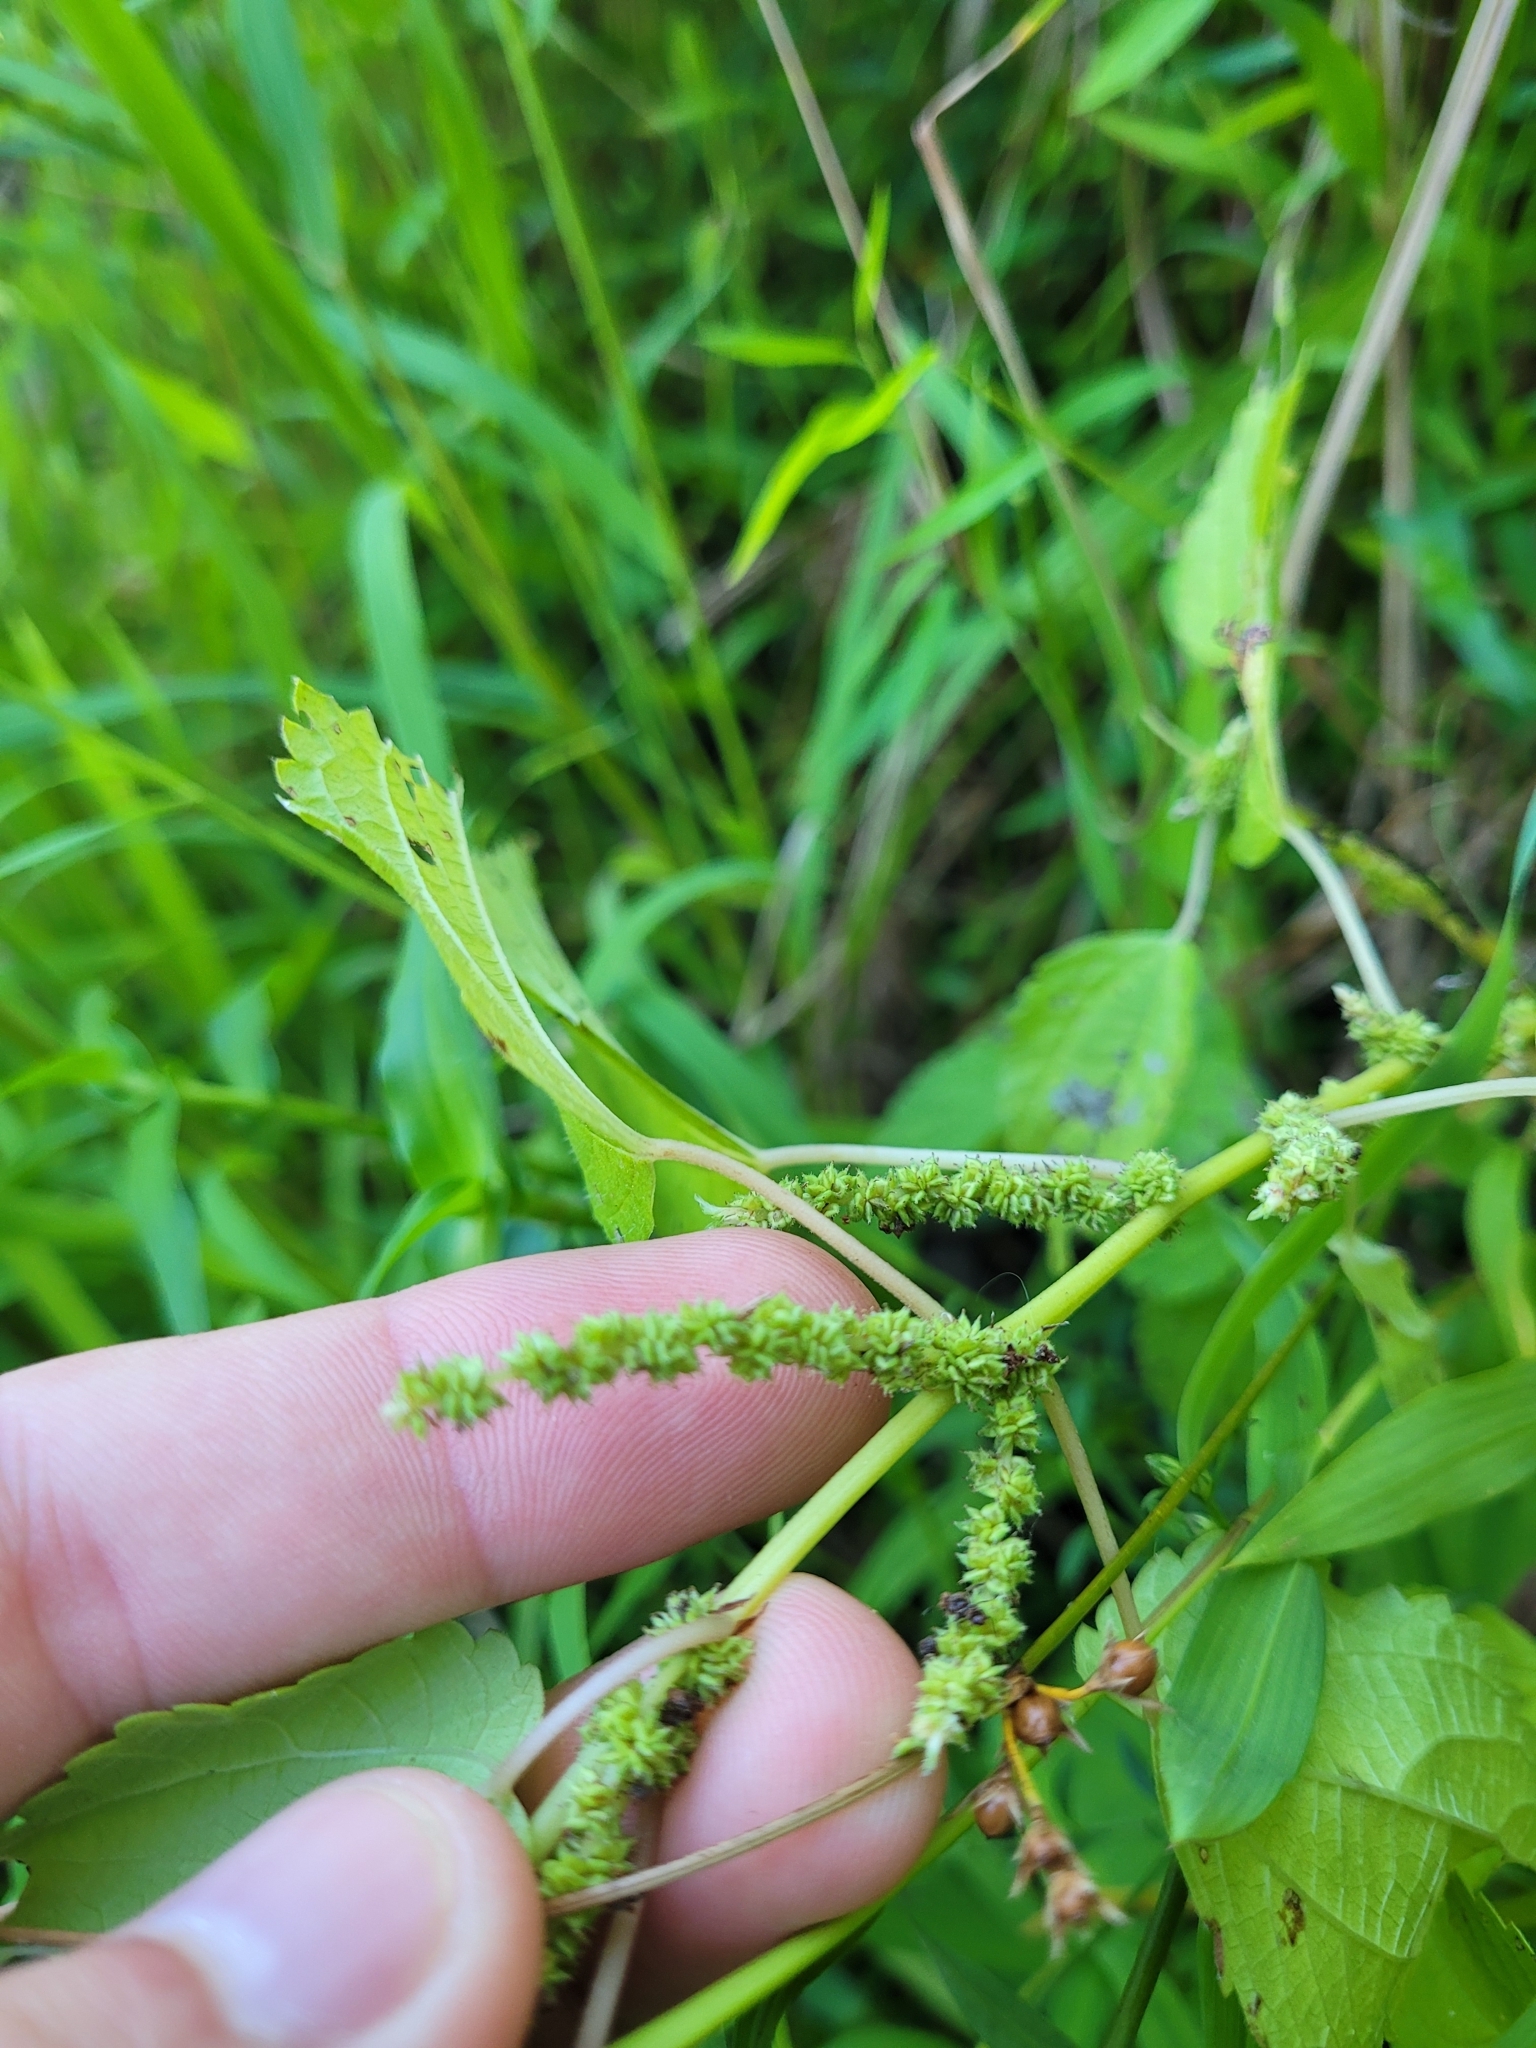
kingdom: Plantae
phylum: Tracheophyta
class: Magnoliopsida
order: Rosales
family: Urticaceae
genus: Boehmeria
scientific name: Boehmeria cylindrica
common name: Bog-hemp
